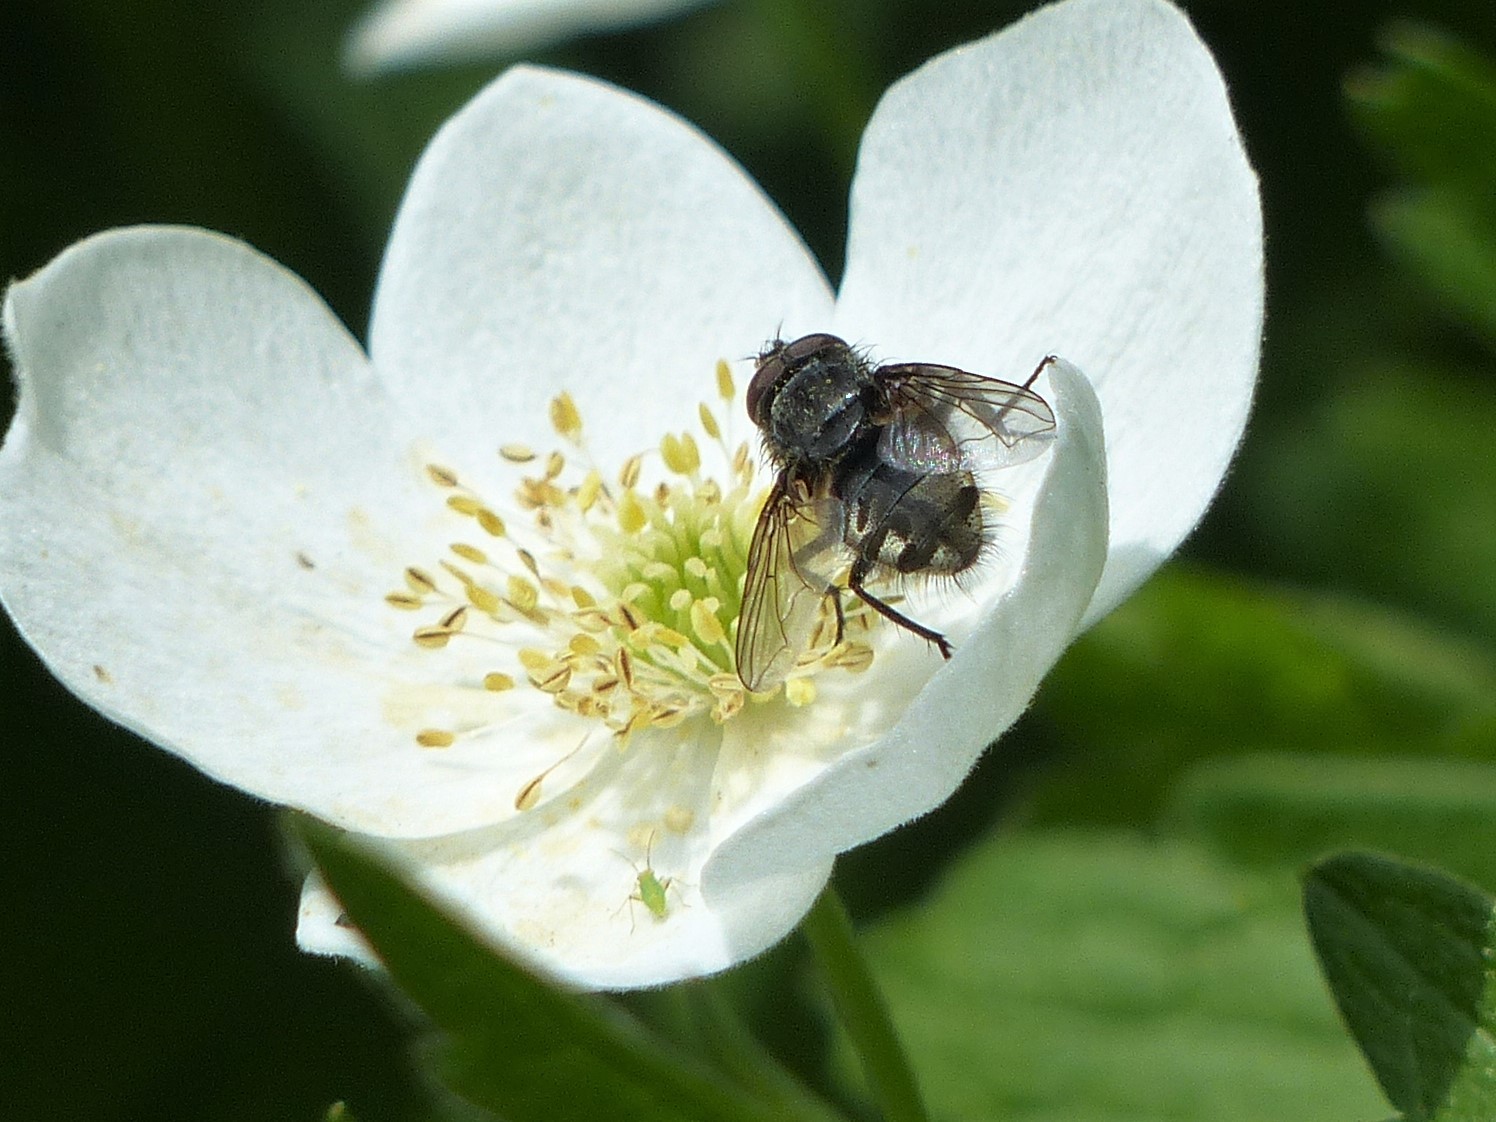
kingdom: Animalia
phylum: Arthropoda
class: Insecta
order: Diptera
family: Polleniidae
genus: Pollenia
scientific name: Pollenia
